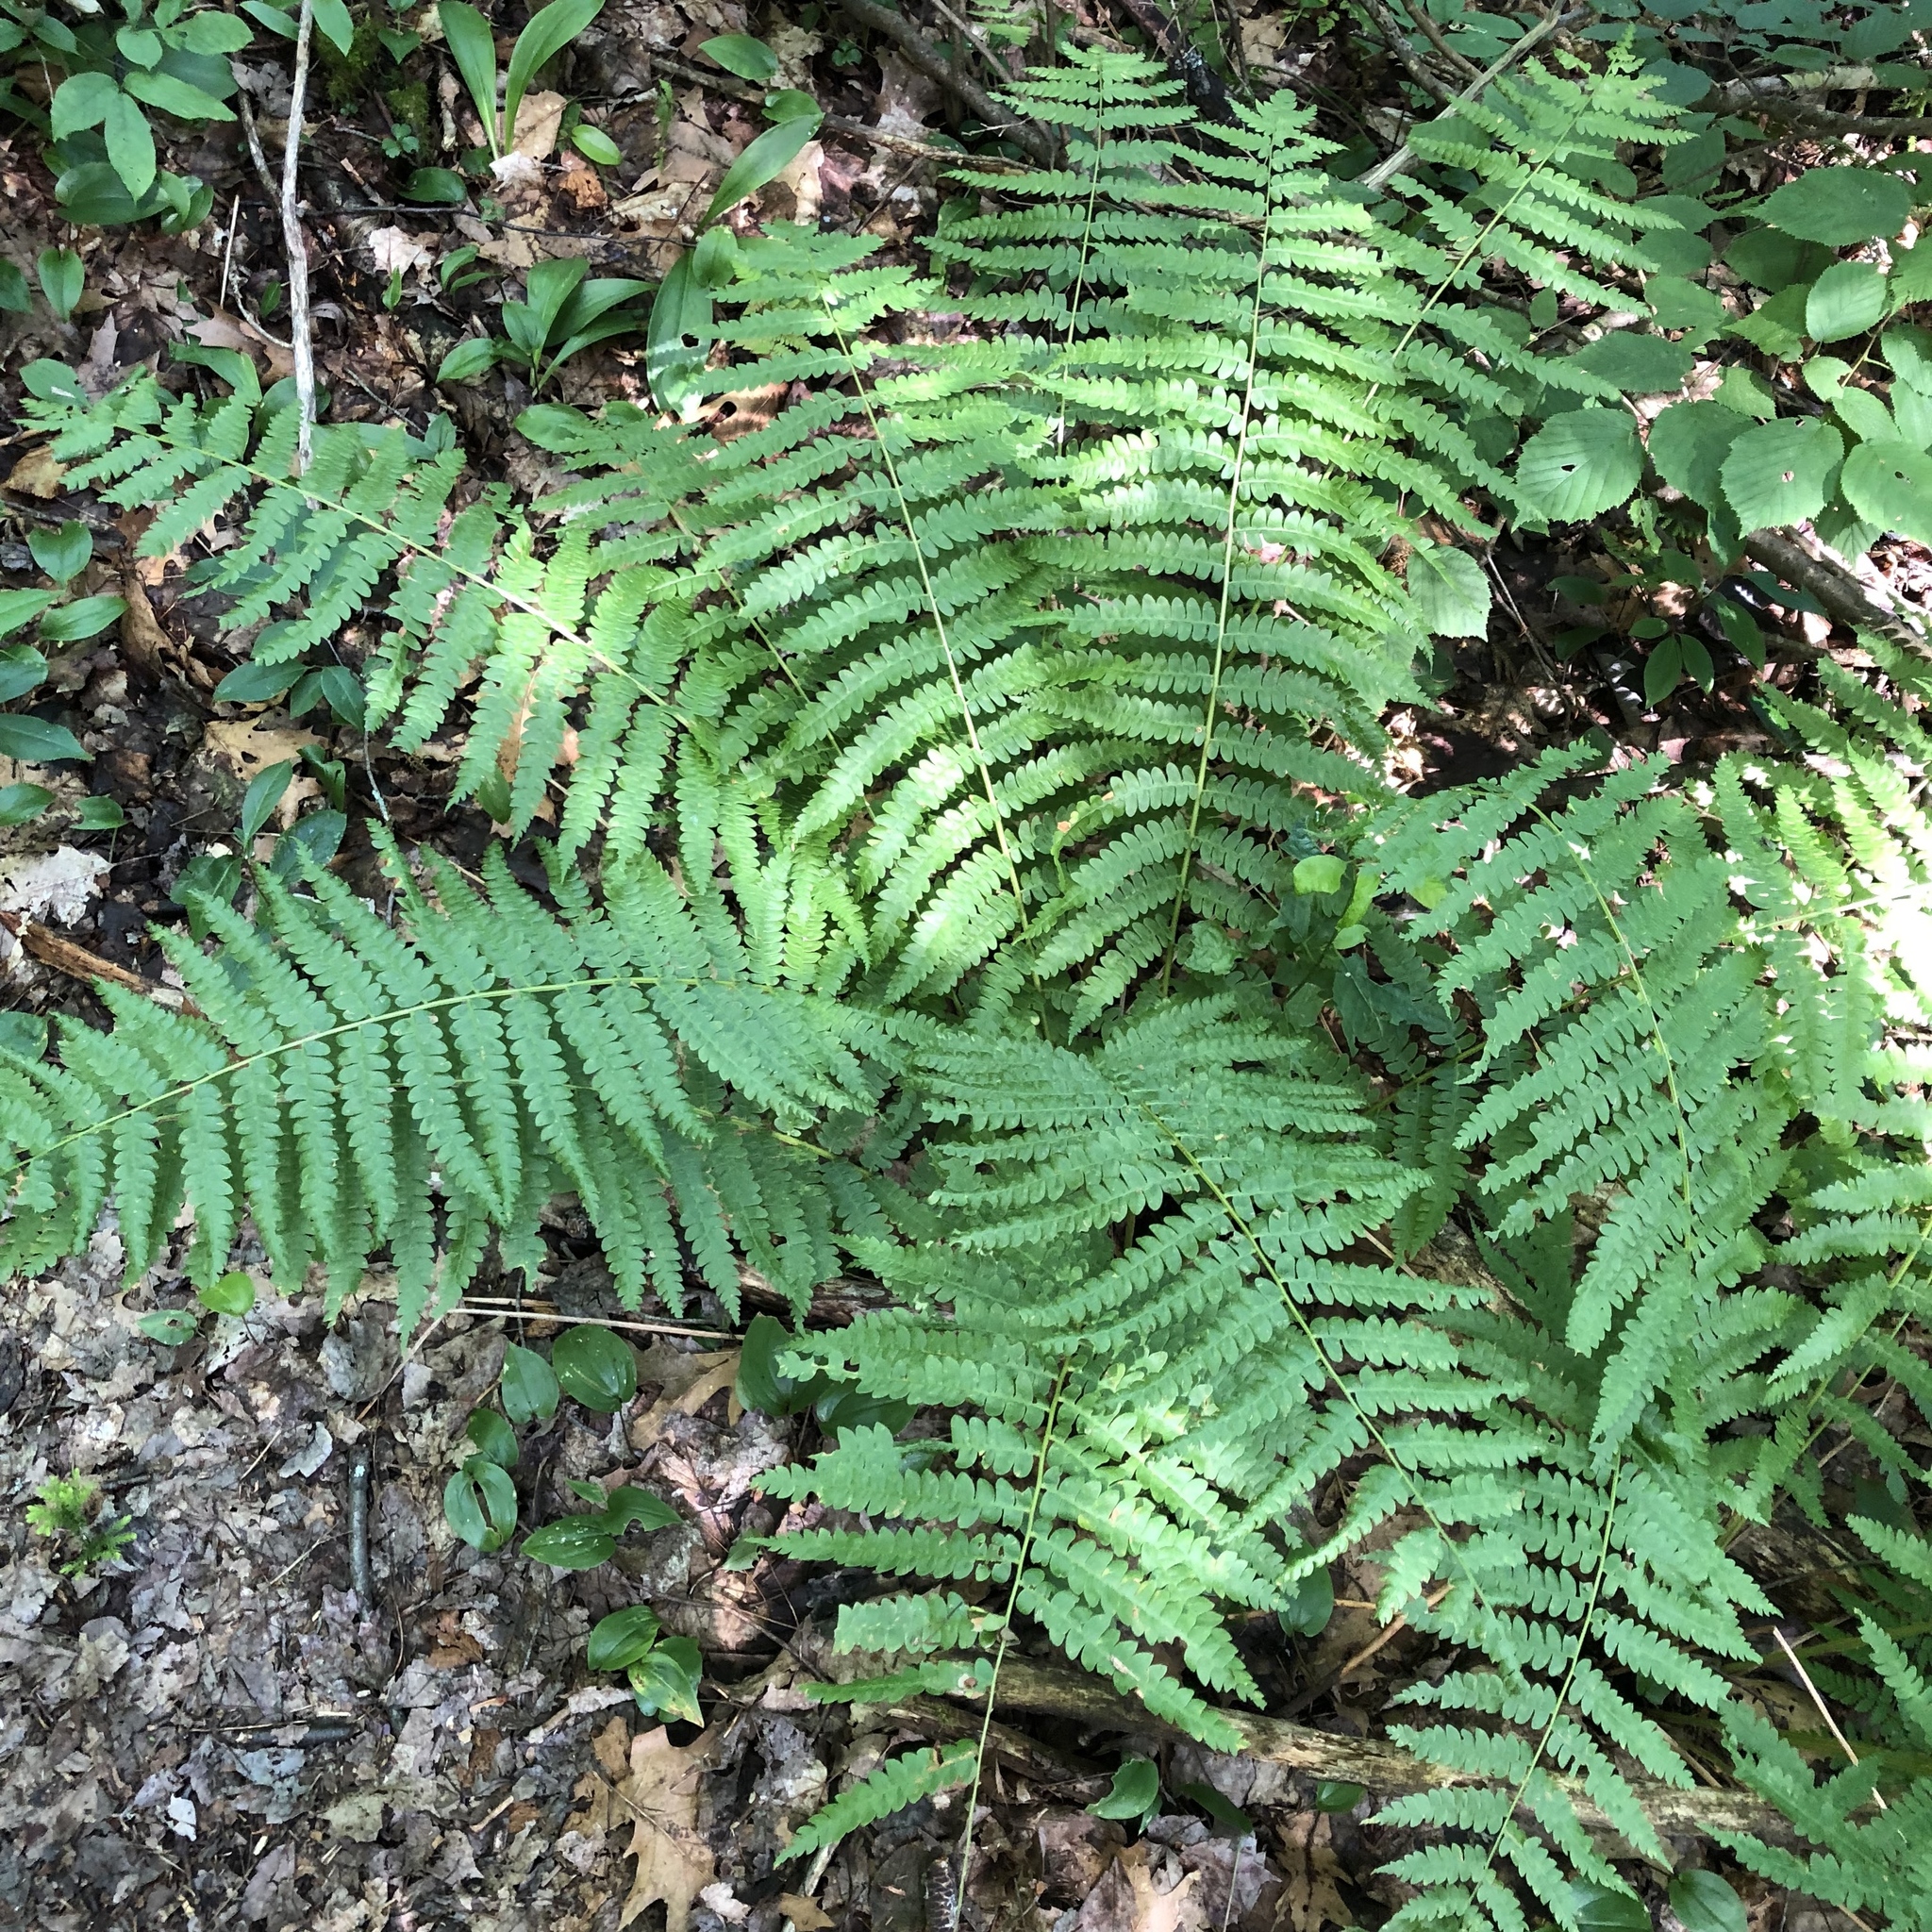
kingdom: Plantae
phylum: Tracheophyta
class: Polypodiopsida
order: Osmundales
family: Osmundaceae
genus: Osmundastrum
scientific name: Osmundastrum cinnamomeum
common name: Cinnamon fern
